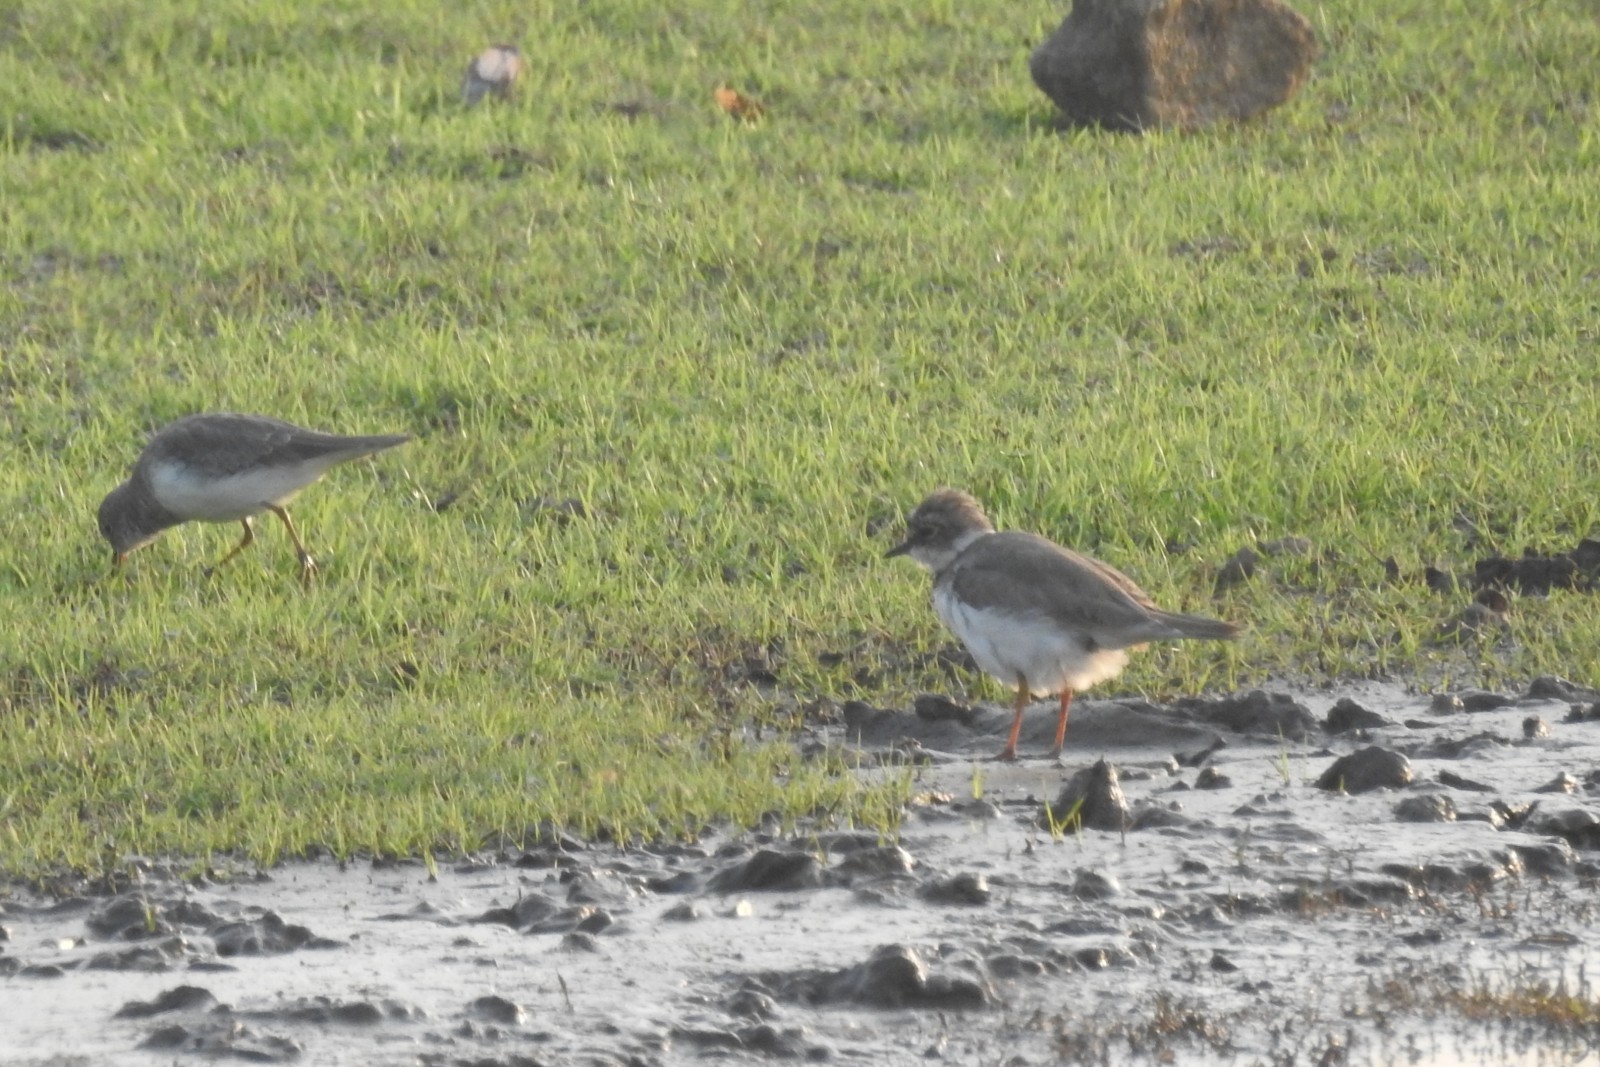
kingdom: Animalia
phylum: Chordata
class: Aves
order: Charadriiformes
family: Charadriidae
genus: Charadrius
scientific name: Charadrius dubius
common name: Little ringed plover
